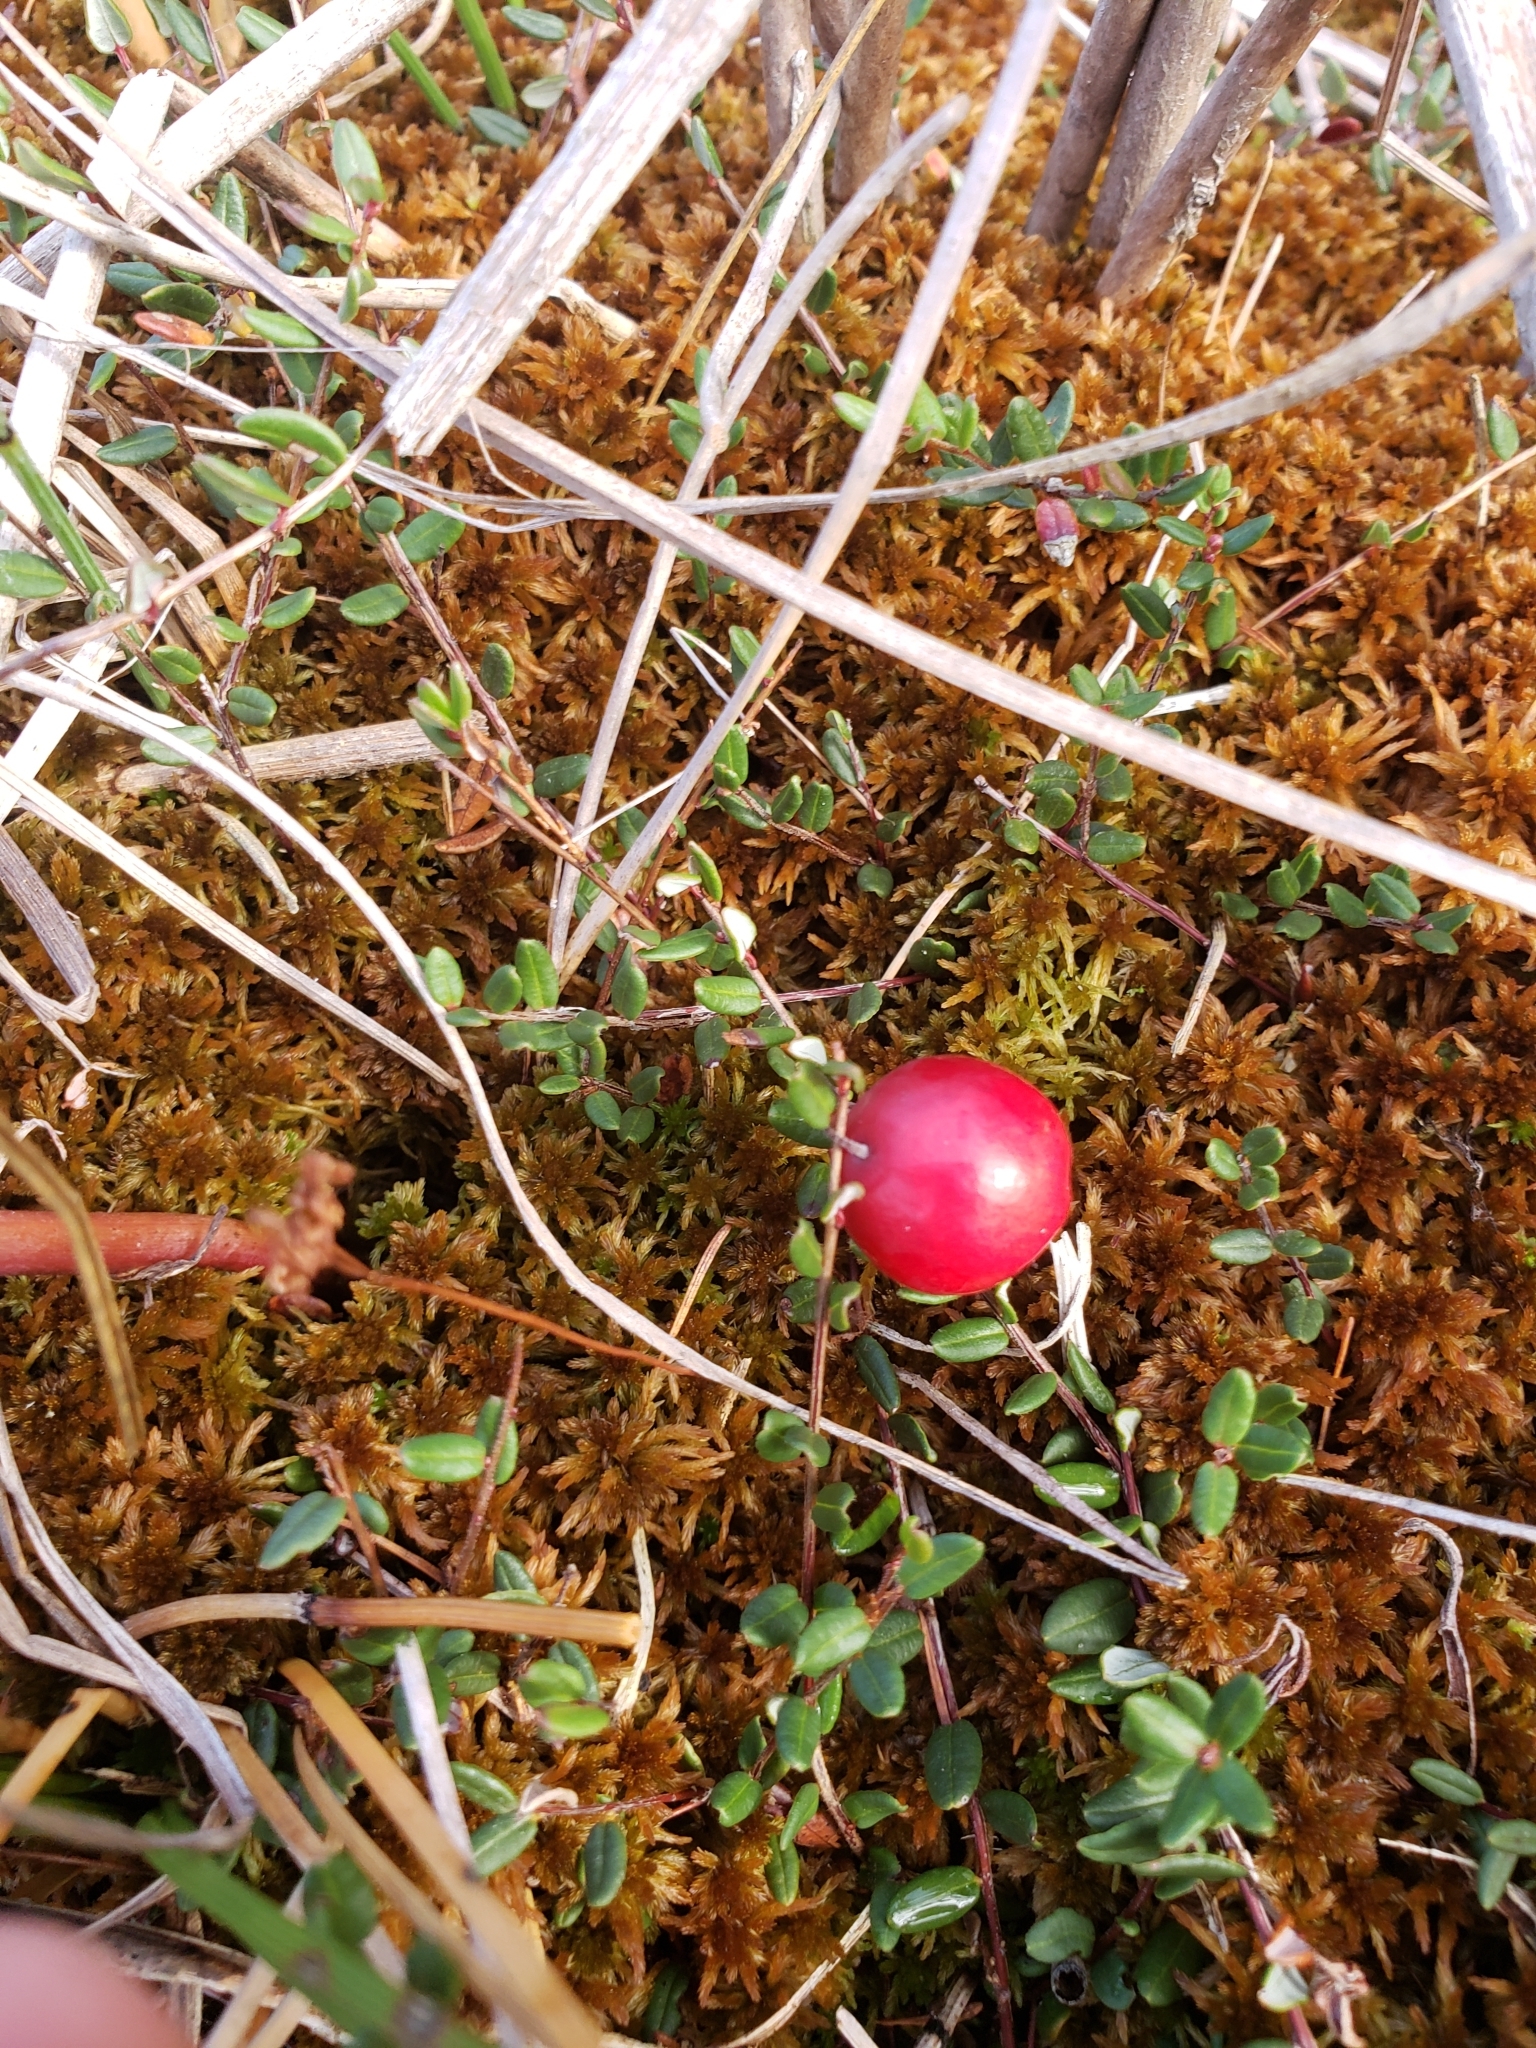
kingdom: Plantae
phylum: Tracheophyta
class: Magnoliopsida
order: Ericales
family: Ericaceae
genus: Vaccinium
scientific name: Vaccinium oxycoccos
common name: Cranberry
